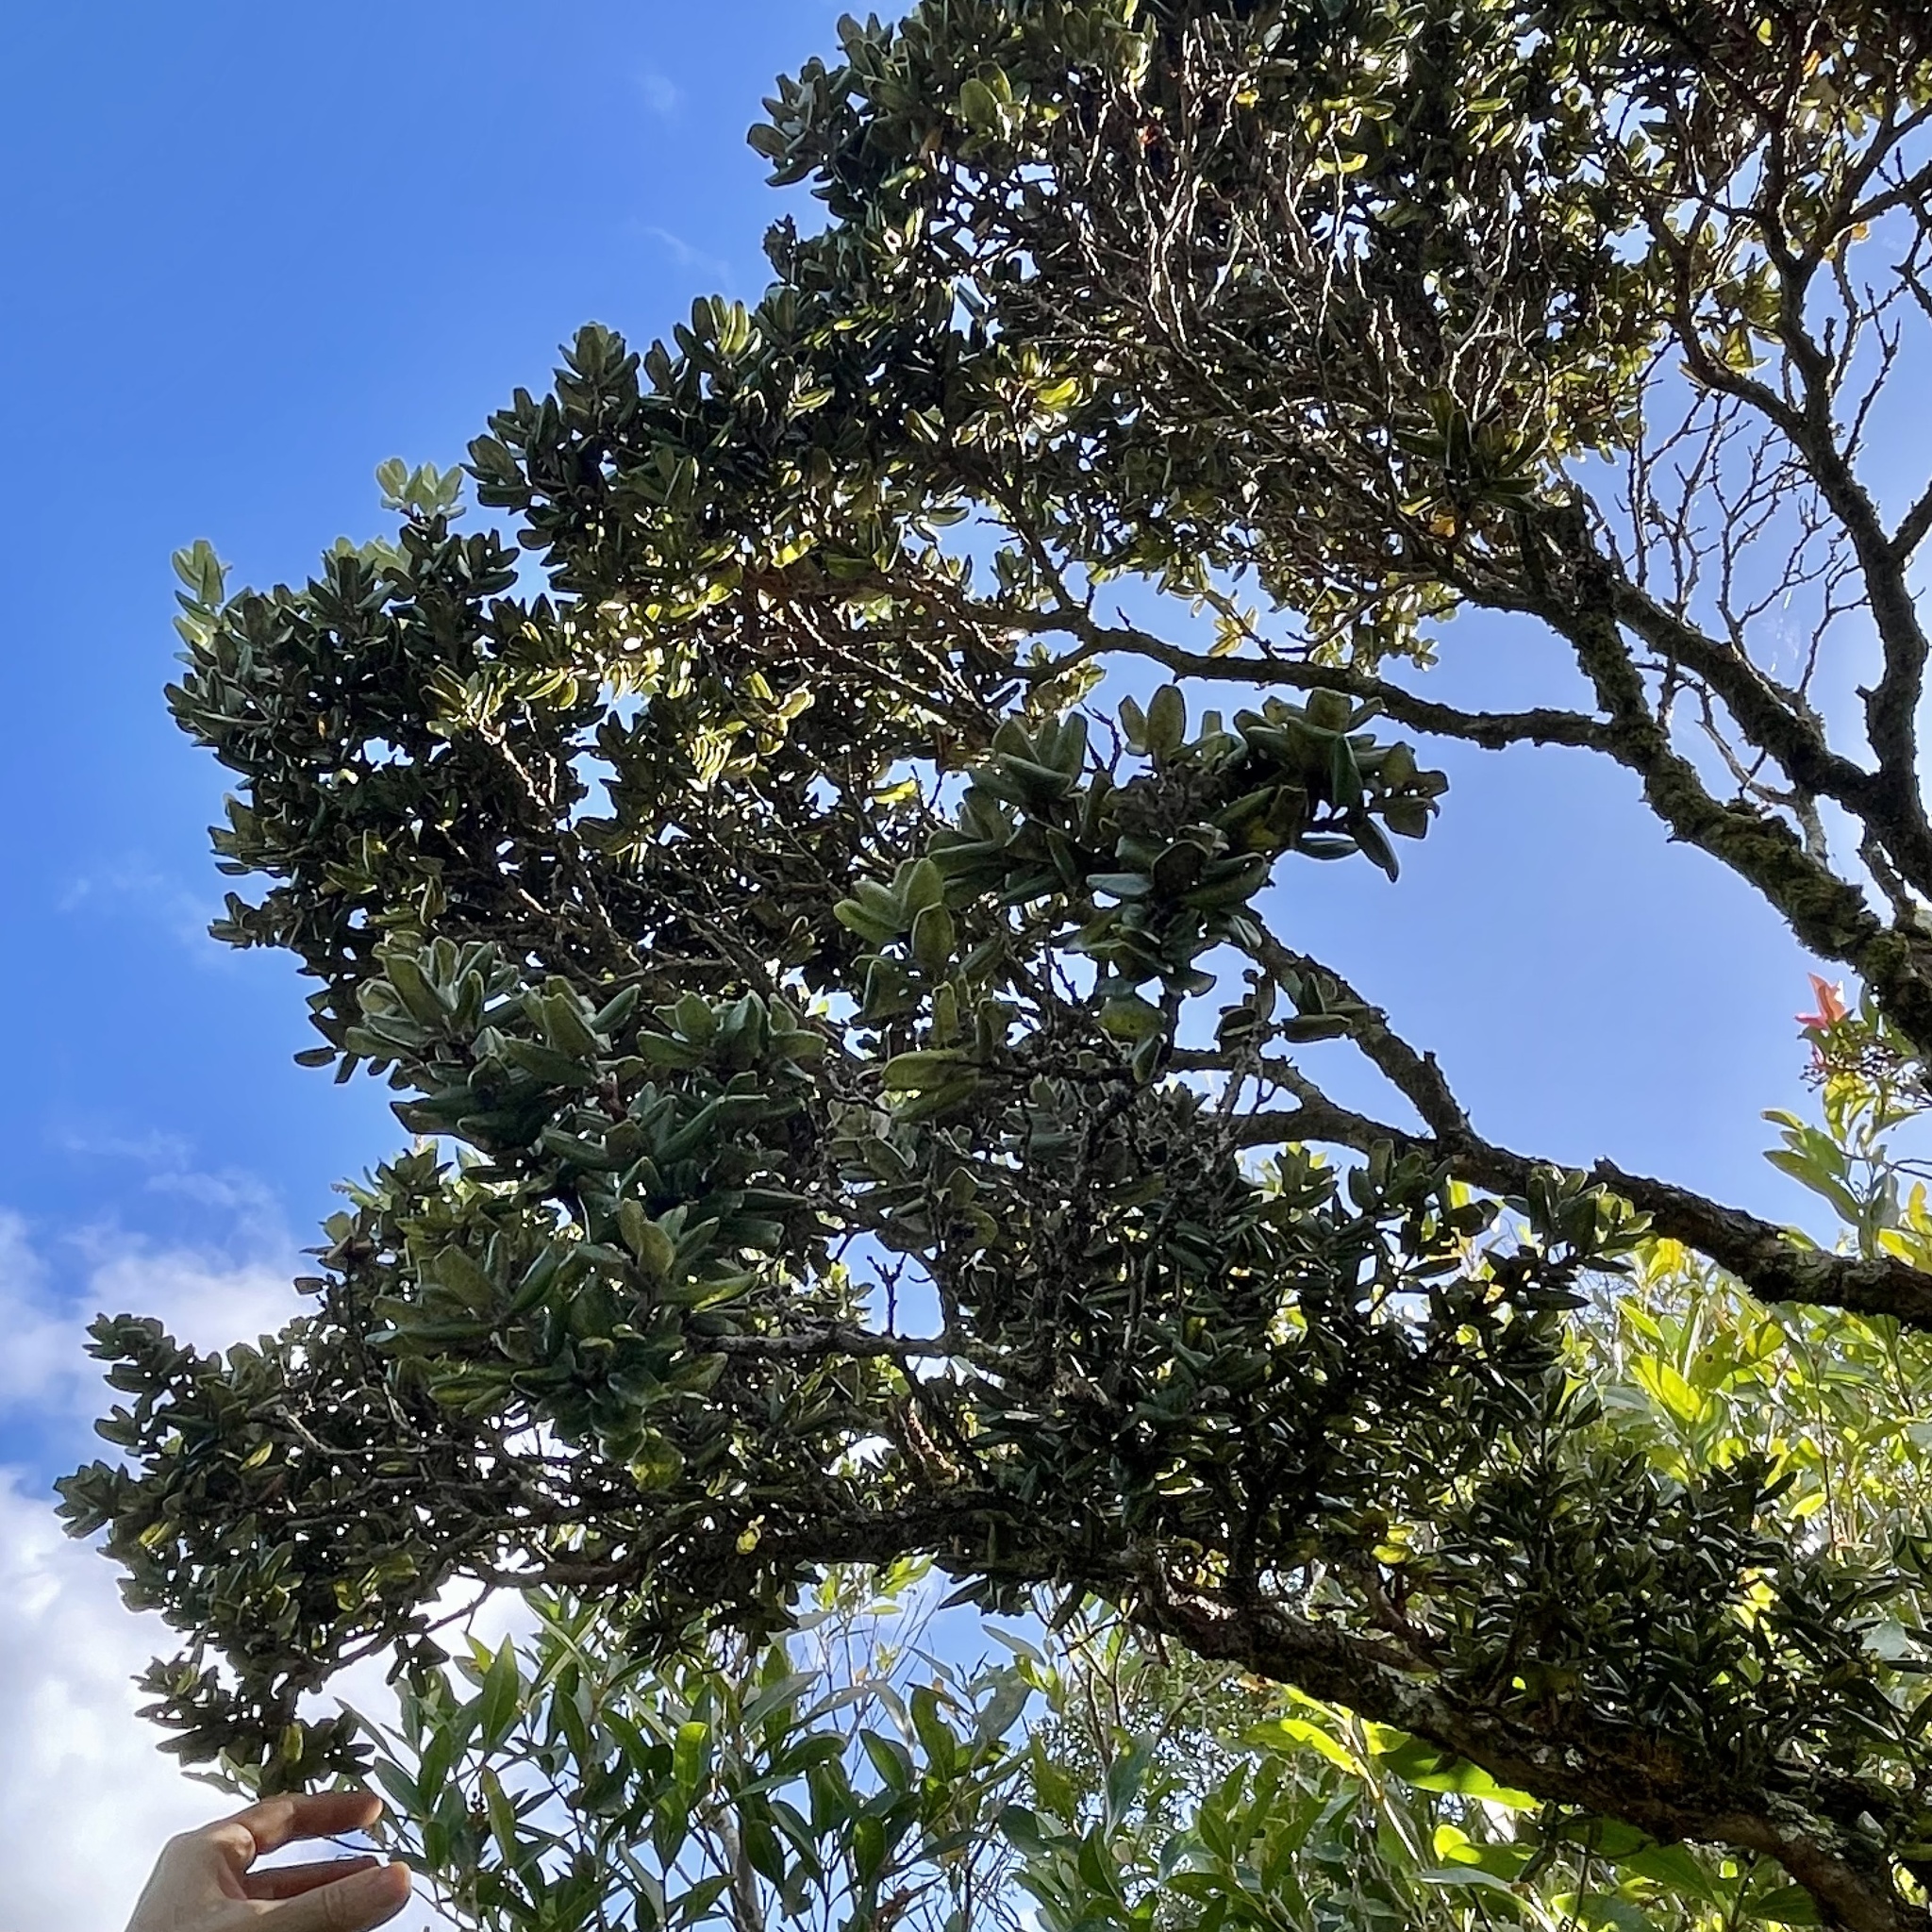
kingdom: Plantae
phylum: Tracheophyta
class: Magnoliopsida
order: Myrtales
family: Myrtaceae
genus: Metrosideros
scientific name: Metrosideros polymorpha
